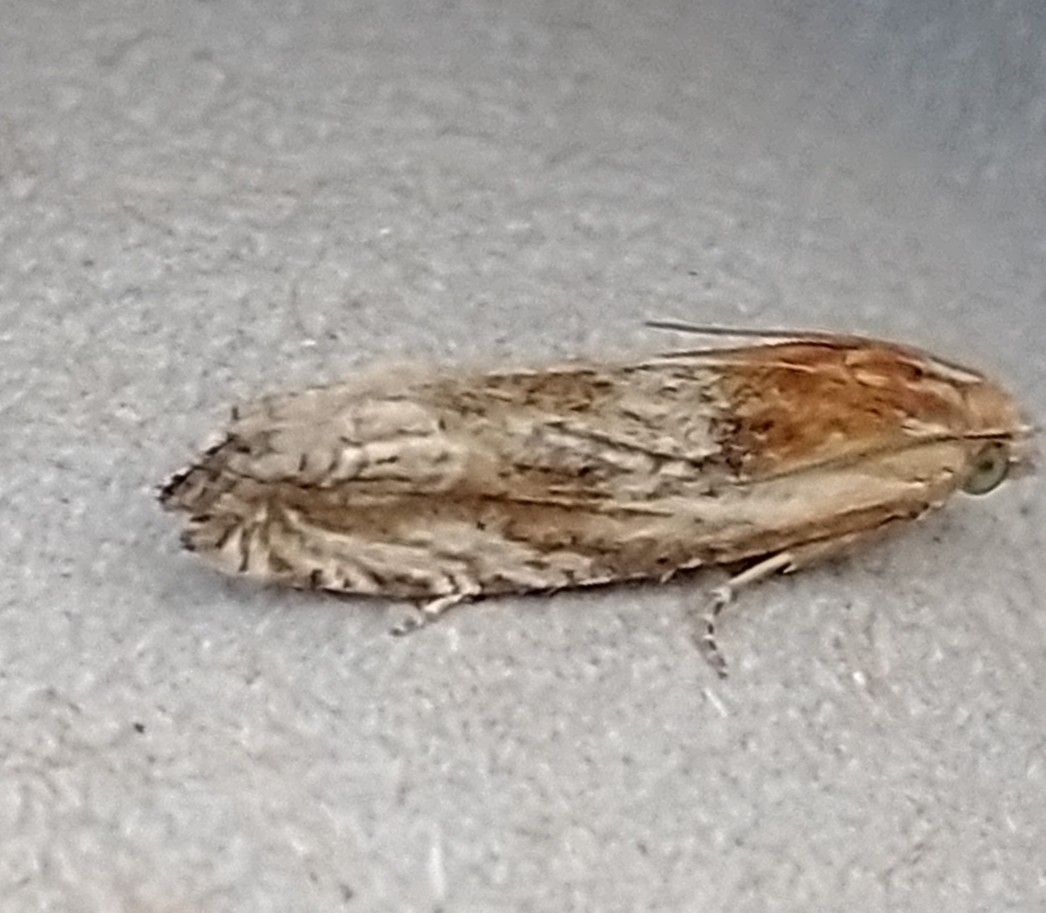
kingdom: Animalia
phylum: Arthropoda
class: Insecta
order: Lepidoptera
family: Tortricidae
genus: Eucosma
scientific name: Eucosma cana
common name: Hoary belle
